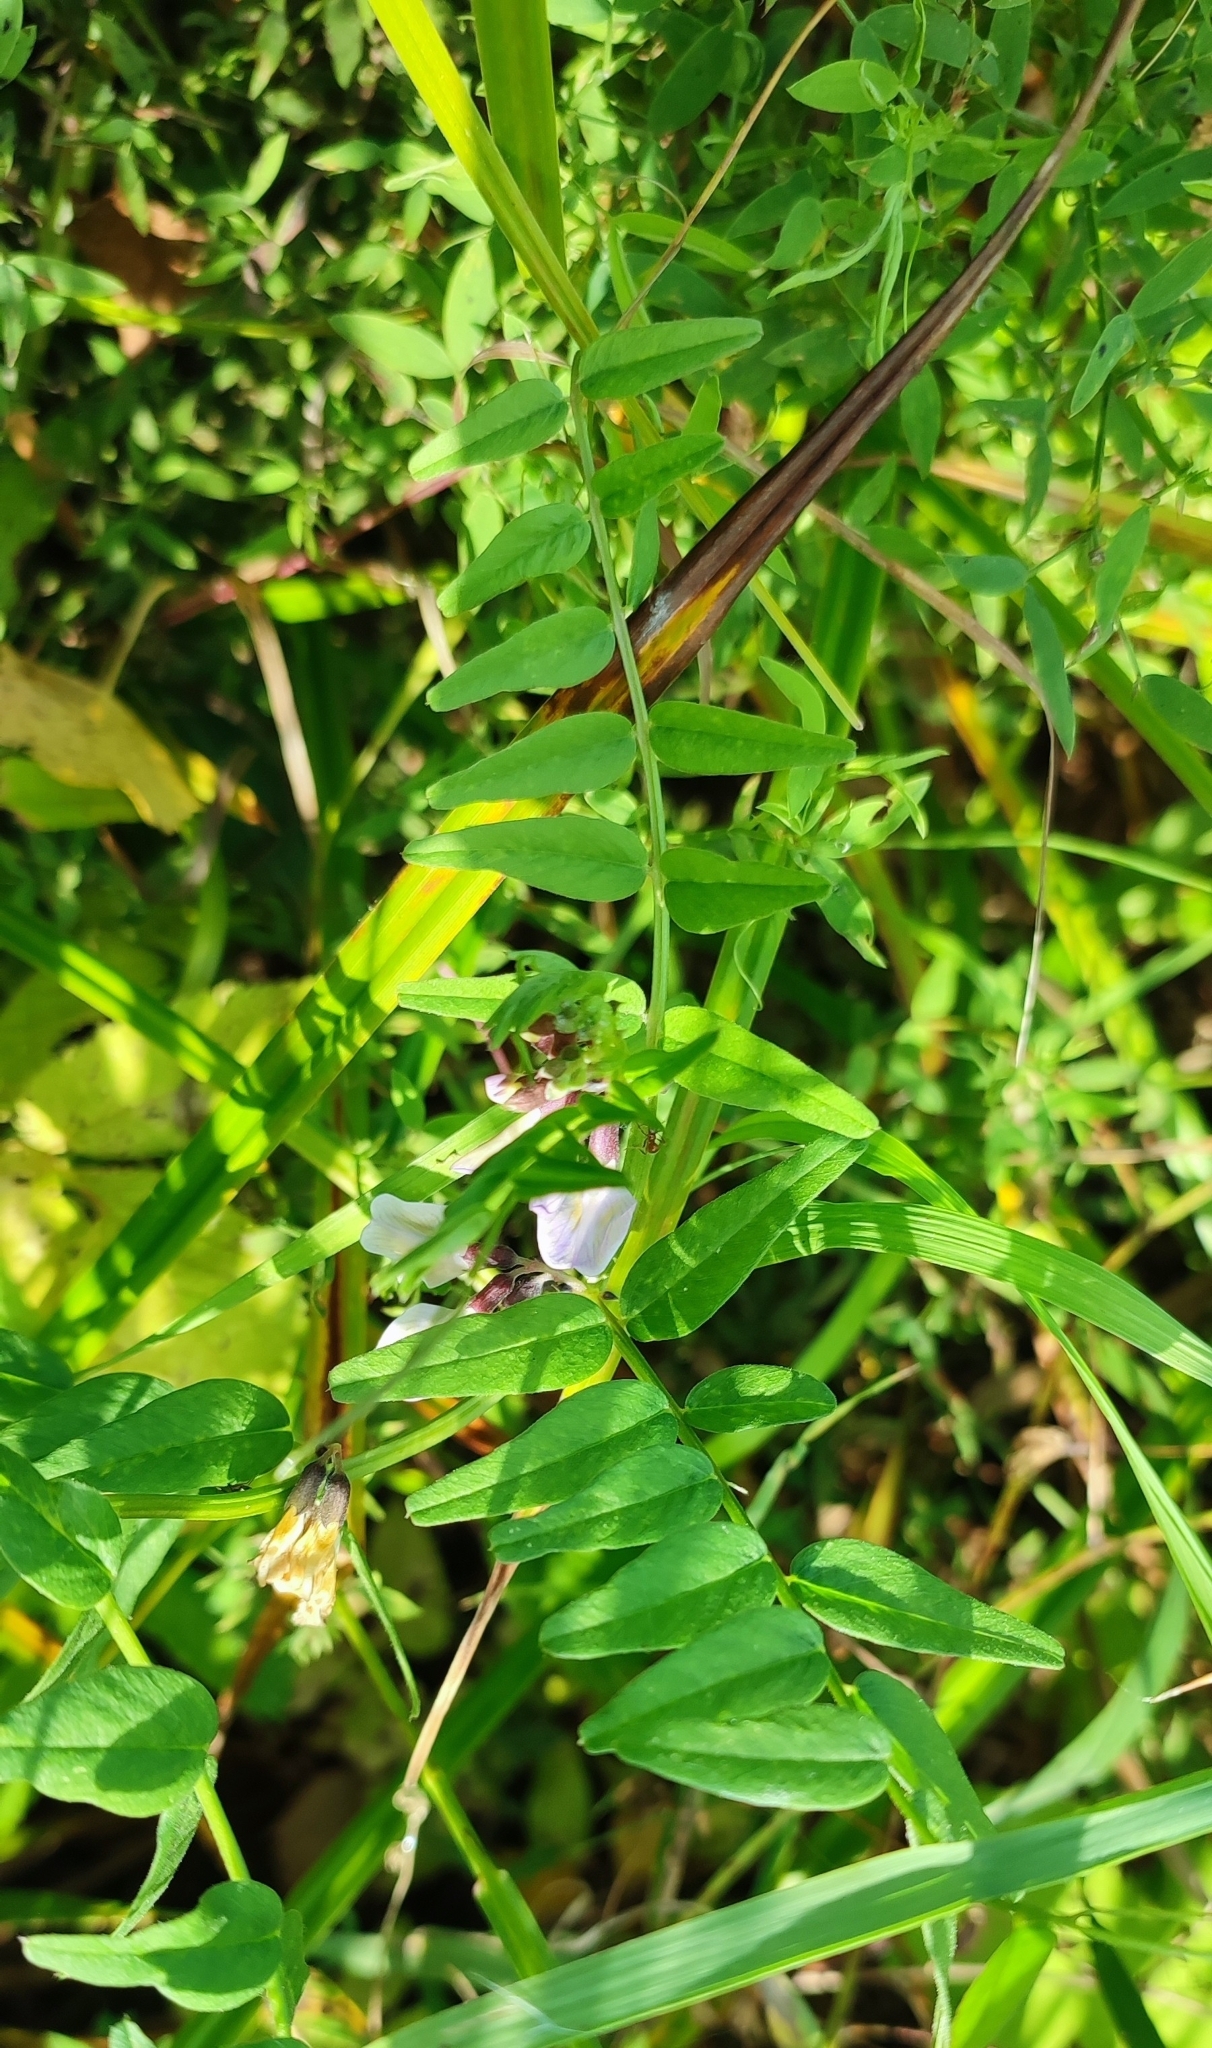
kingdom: Plantae
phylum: Tracheophyta
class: Magnoliopsida
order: Fabales
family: Fabaceae
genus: Vicia
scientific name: Vicia sepium
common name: Bush vetch
